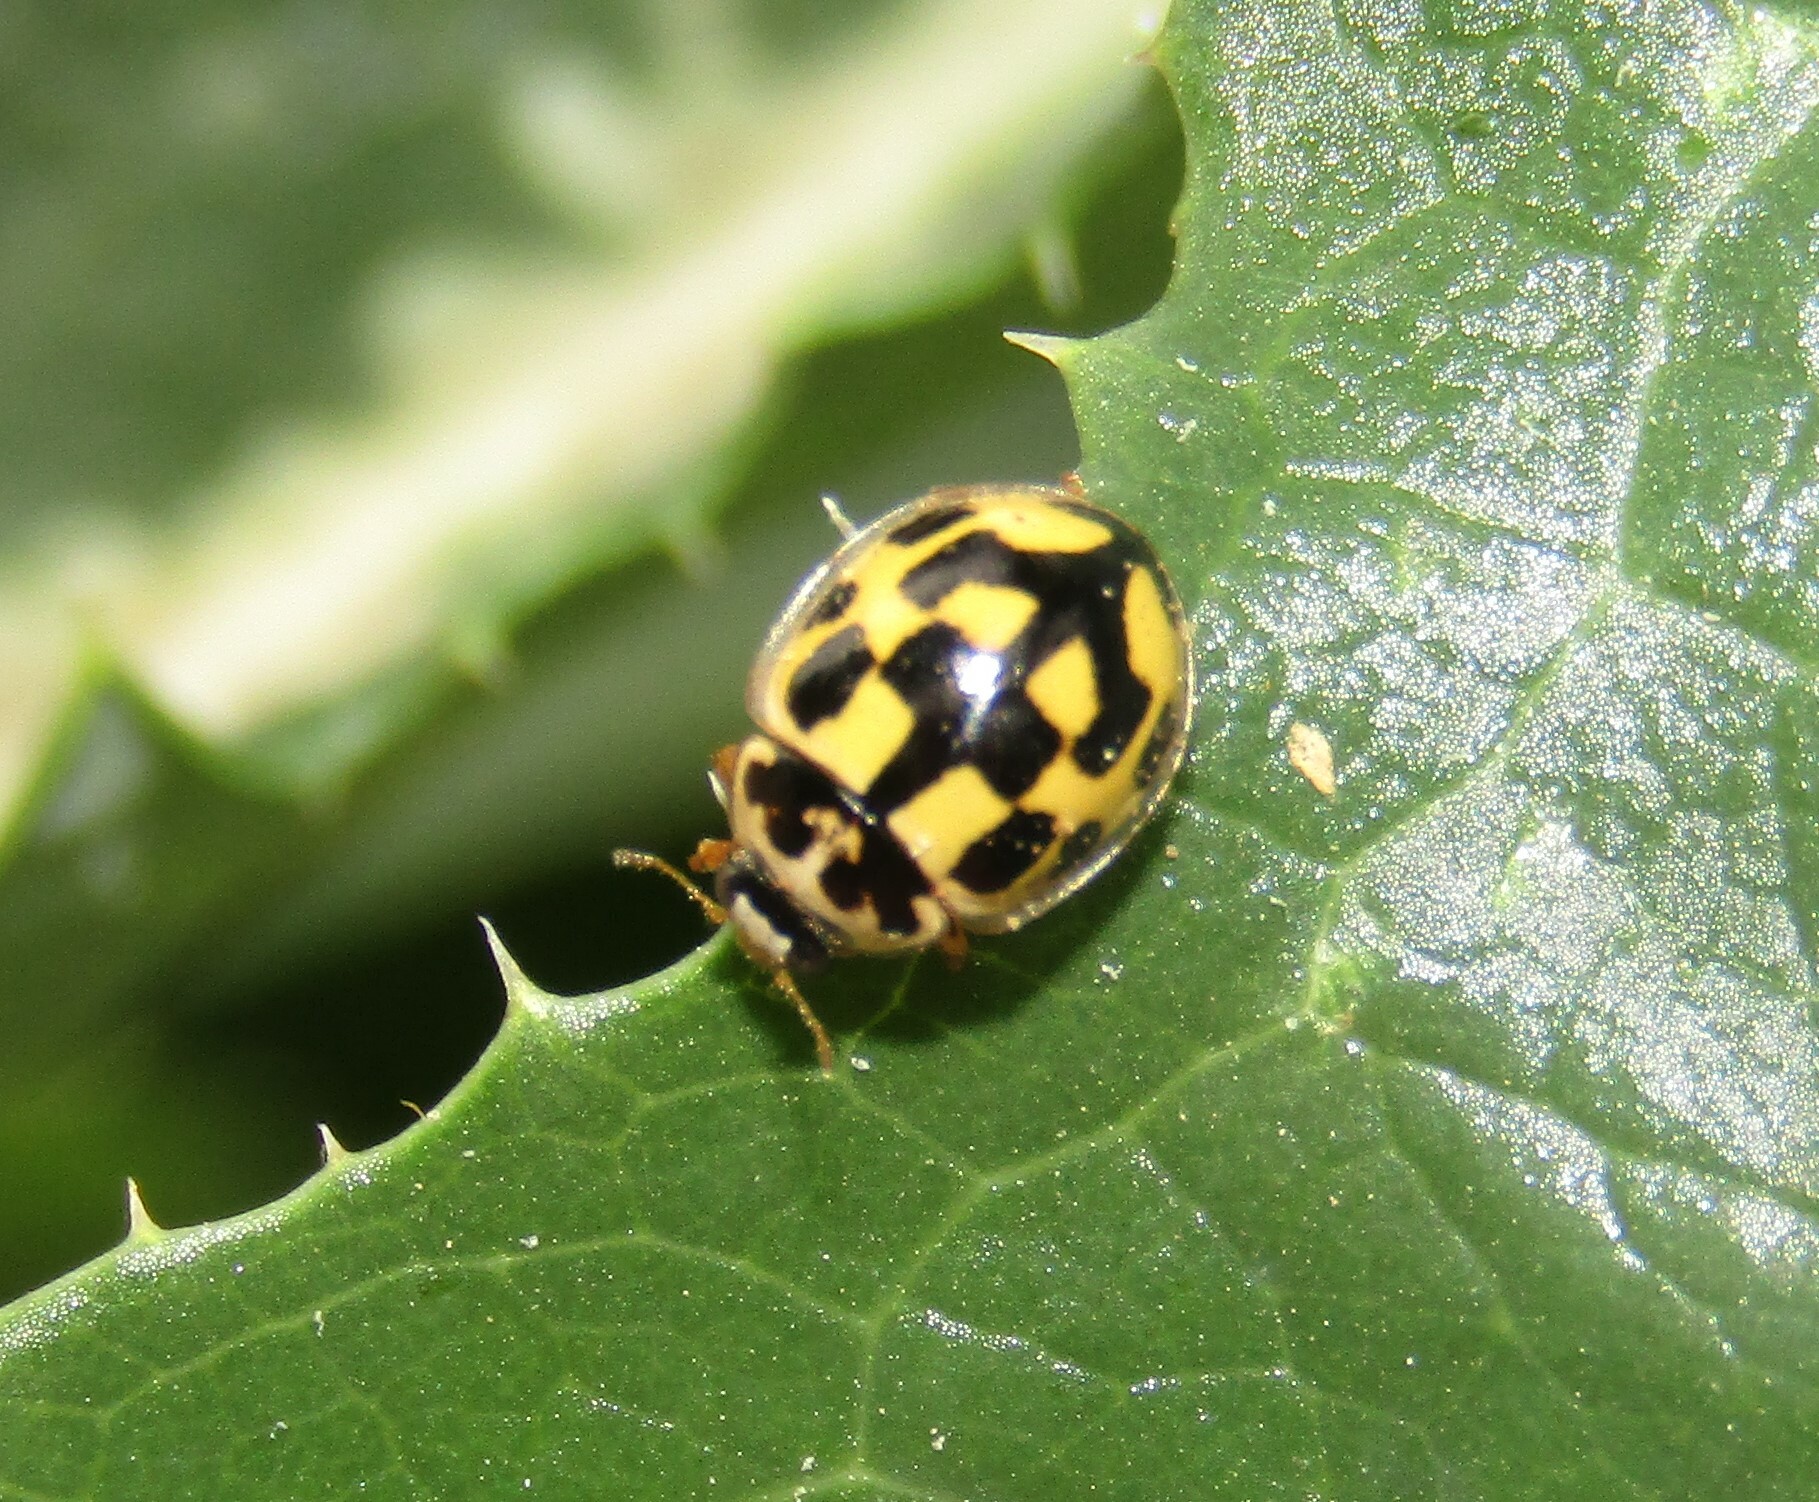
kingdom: Animalia
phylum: Arthropoda
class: Insecta
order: Coleoptera
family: Coccinellidae
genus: Propylaea
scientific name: Propylaea quatuordecimpunctata
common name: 14-spotted ladybird beetle
